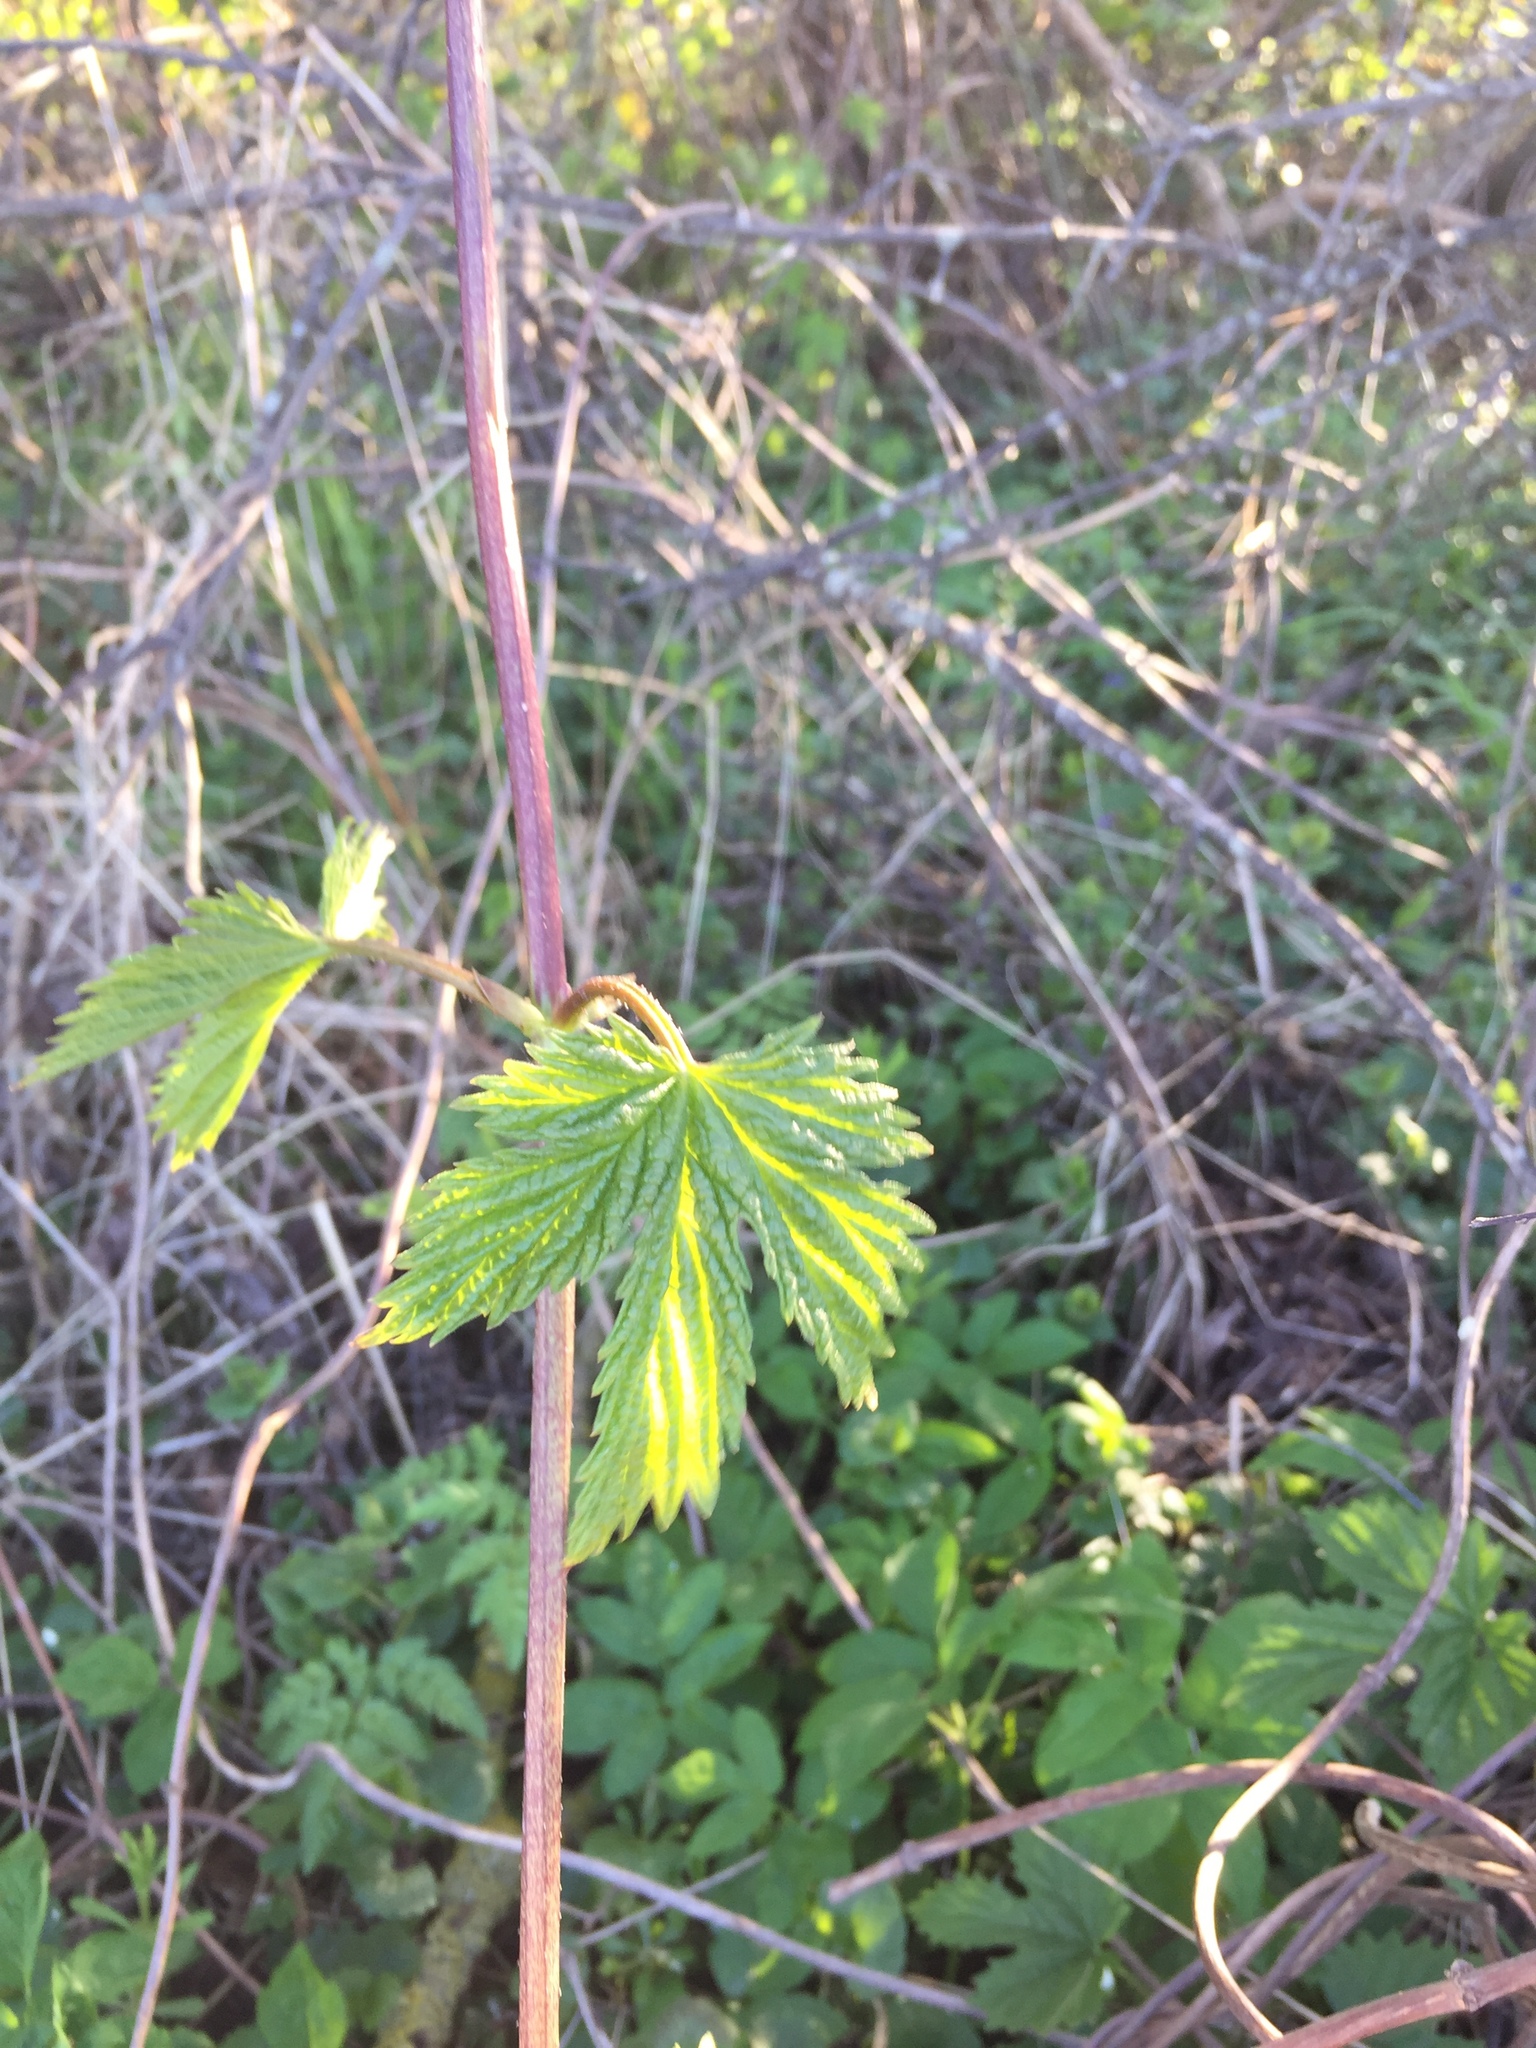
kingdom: Plantae
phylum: Tracheophyta
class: Magnoliopsida
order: Rosales
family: Cannabaceae
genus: Humulus
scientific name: Humulus lupulus
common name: Hop
